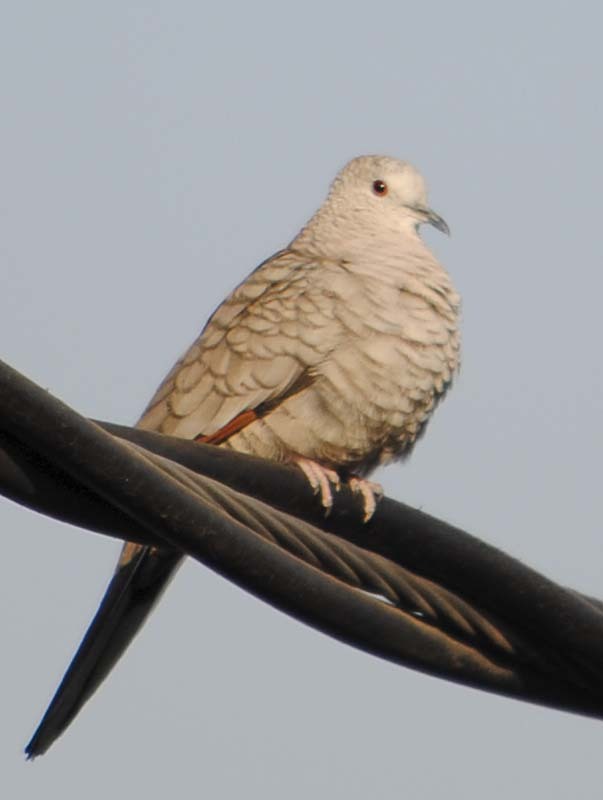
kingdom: Animalia
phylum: Chordata
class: Aves
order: Columbiformes
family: Columbidae
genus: Columbina
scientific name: Columbina inca
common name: Inca dove
